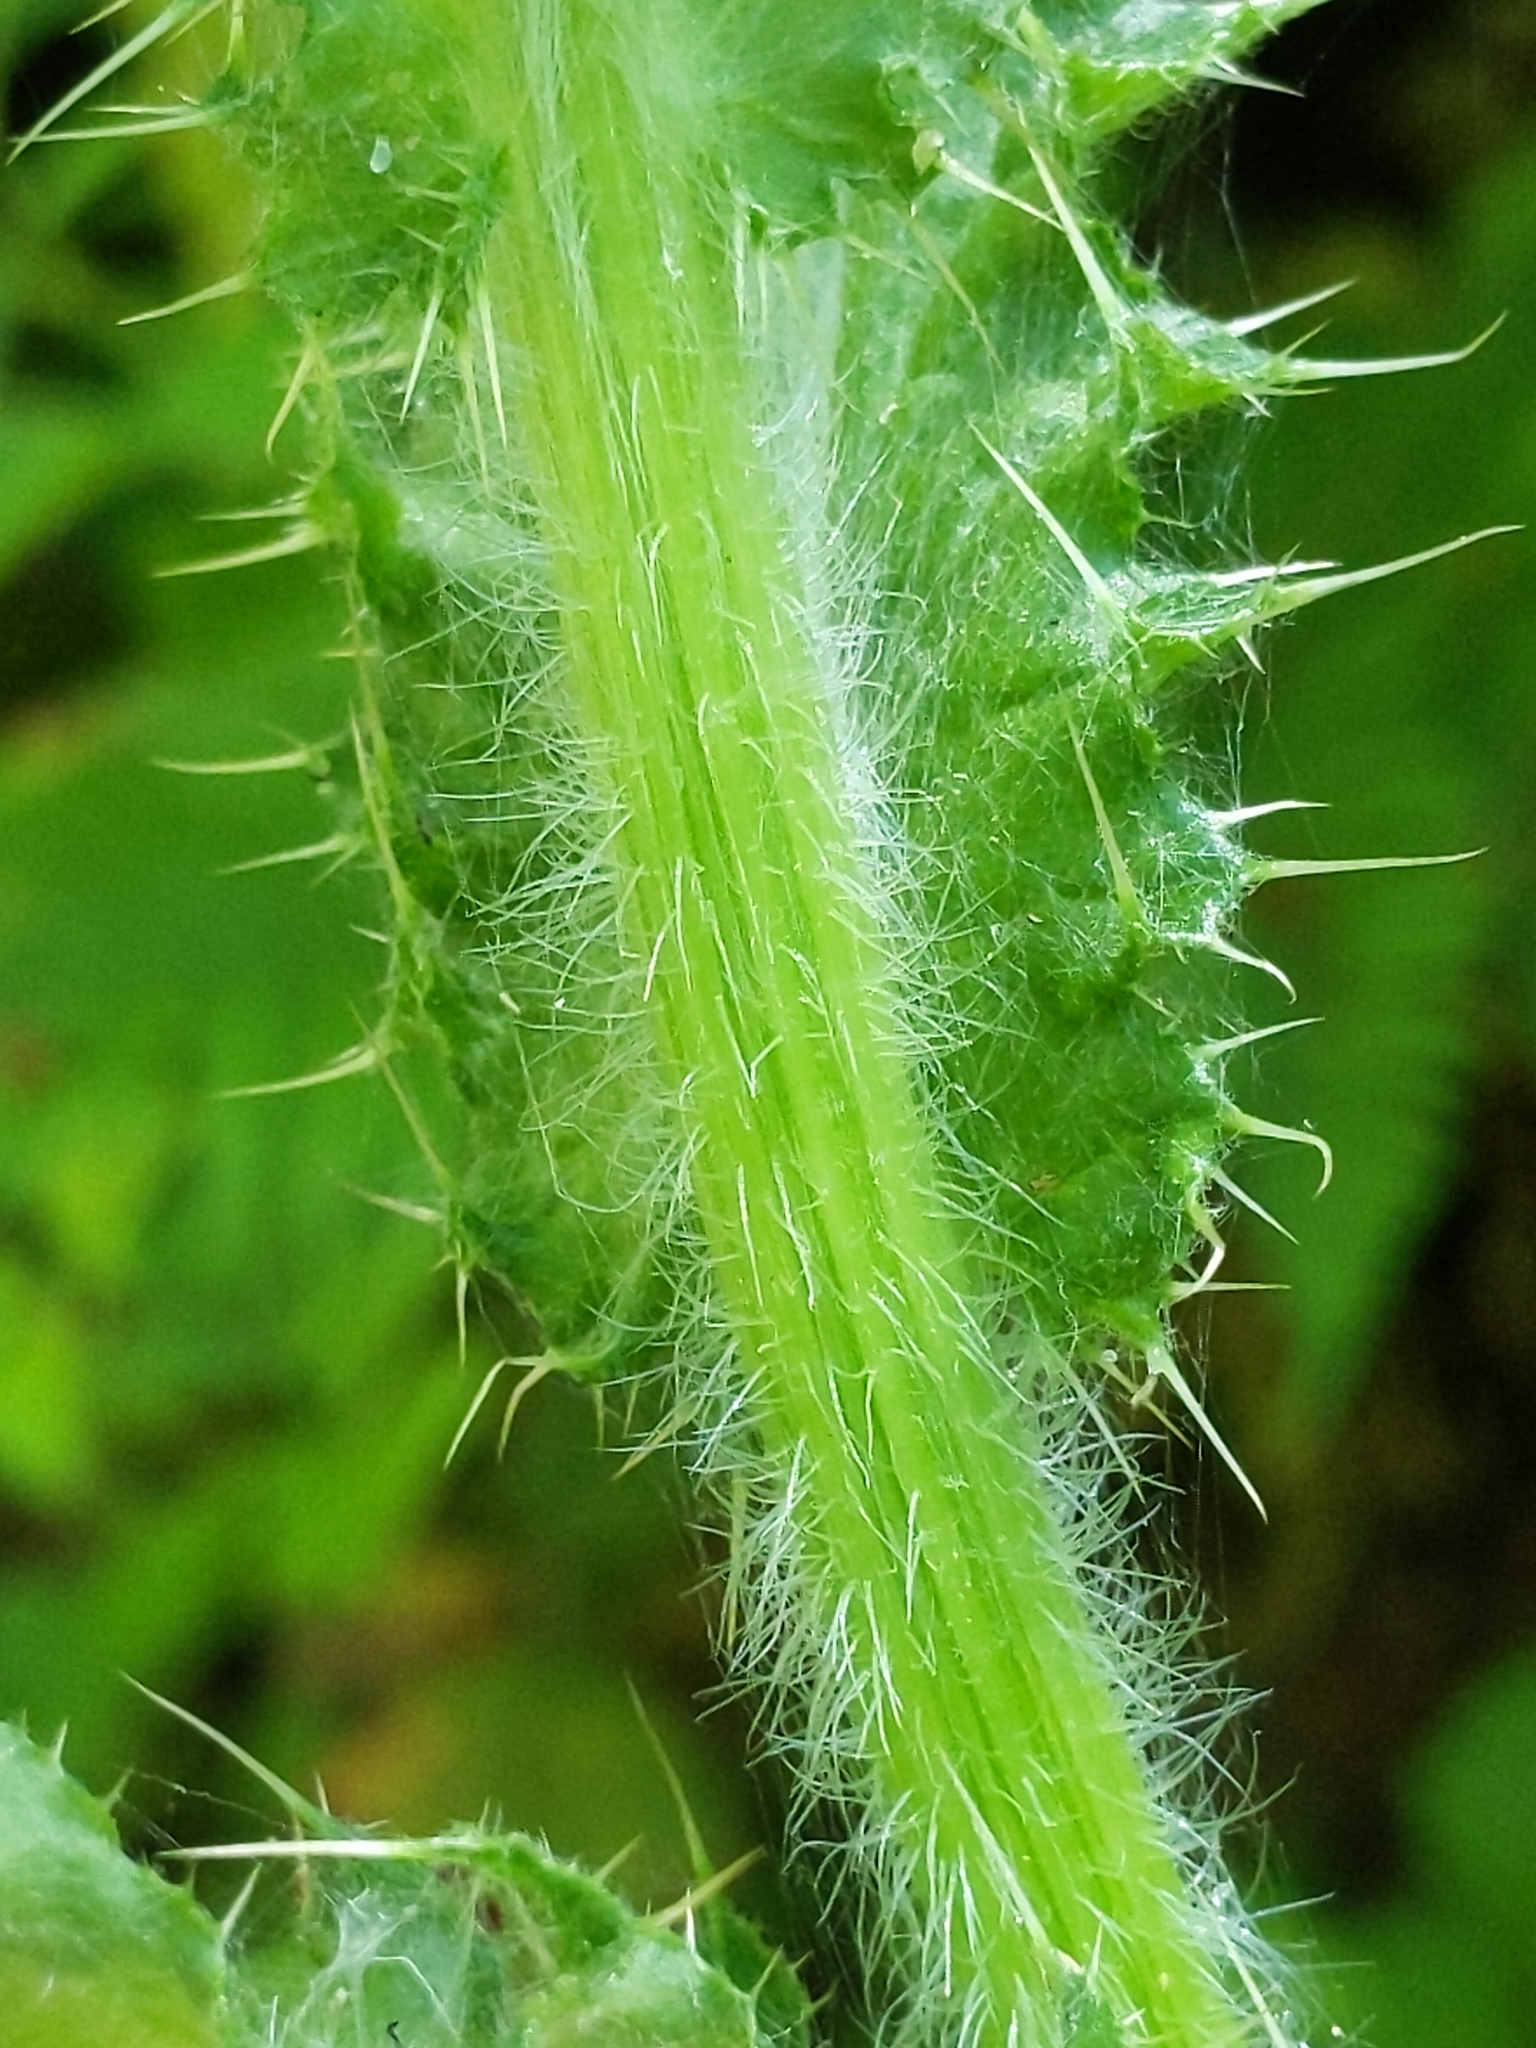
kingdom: Plantae
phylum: Tracheophyta
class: Magnoliopsida
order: Asterales
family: Asteraceae
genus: Cirsium
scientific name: Cirsium brevistylum
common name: Indian thistle
